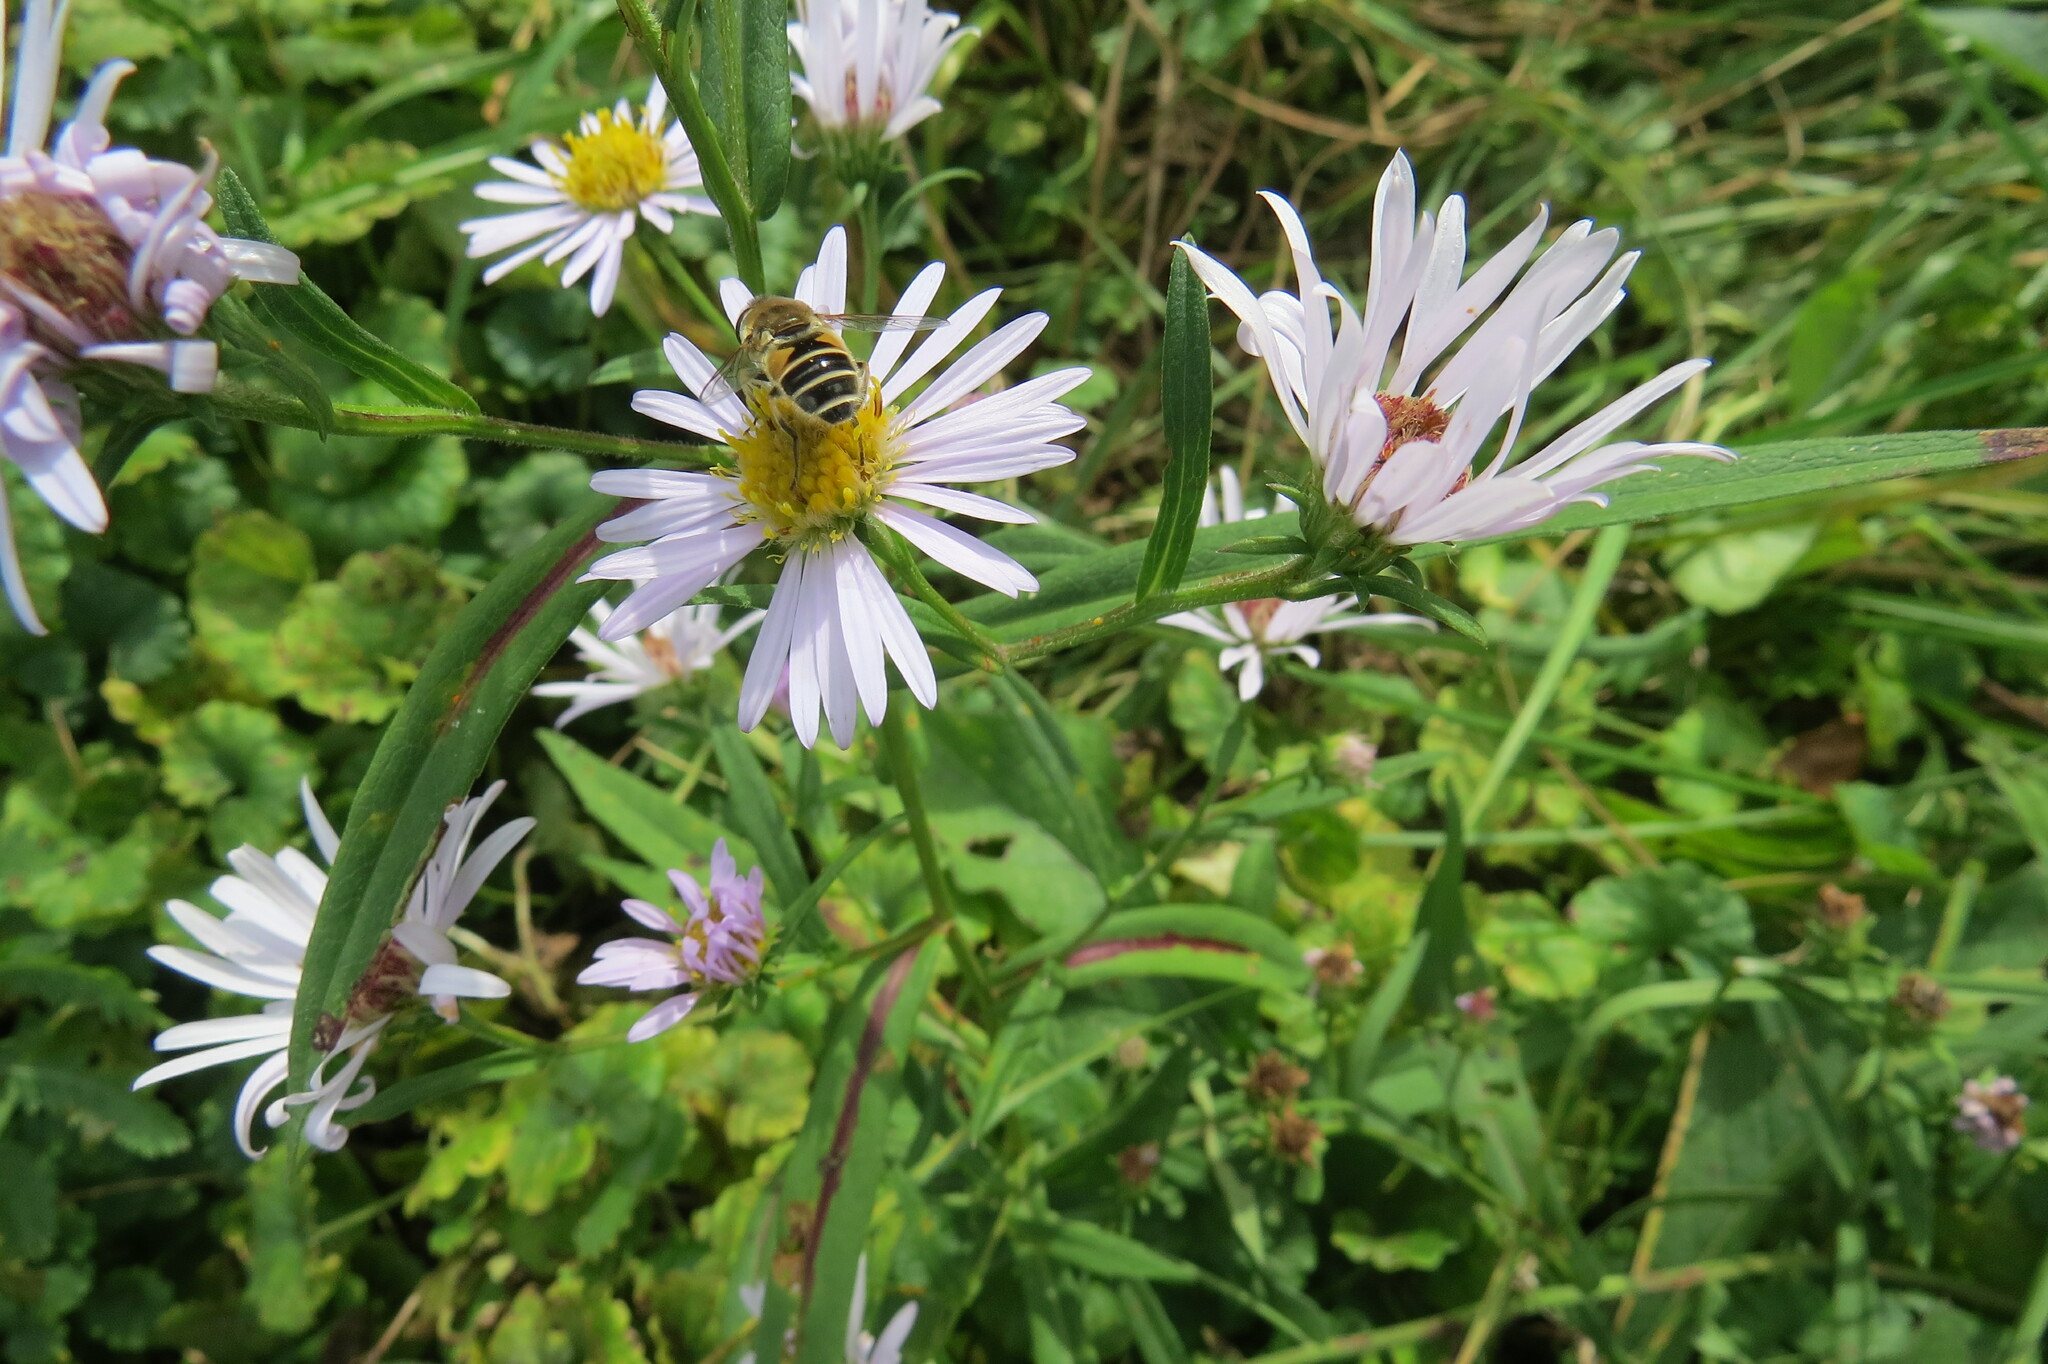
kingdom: Animalia
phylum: Arthropoda
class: Insecta
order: Diptera
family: Syrphidae
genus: Eristalis
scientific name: Eristalis arbustorum
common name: Hover fly
